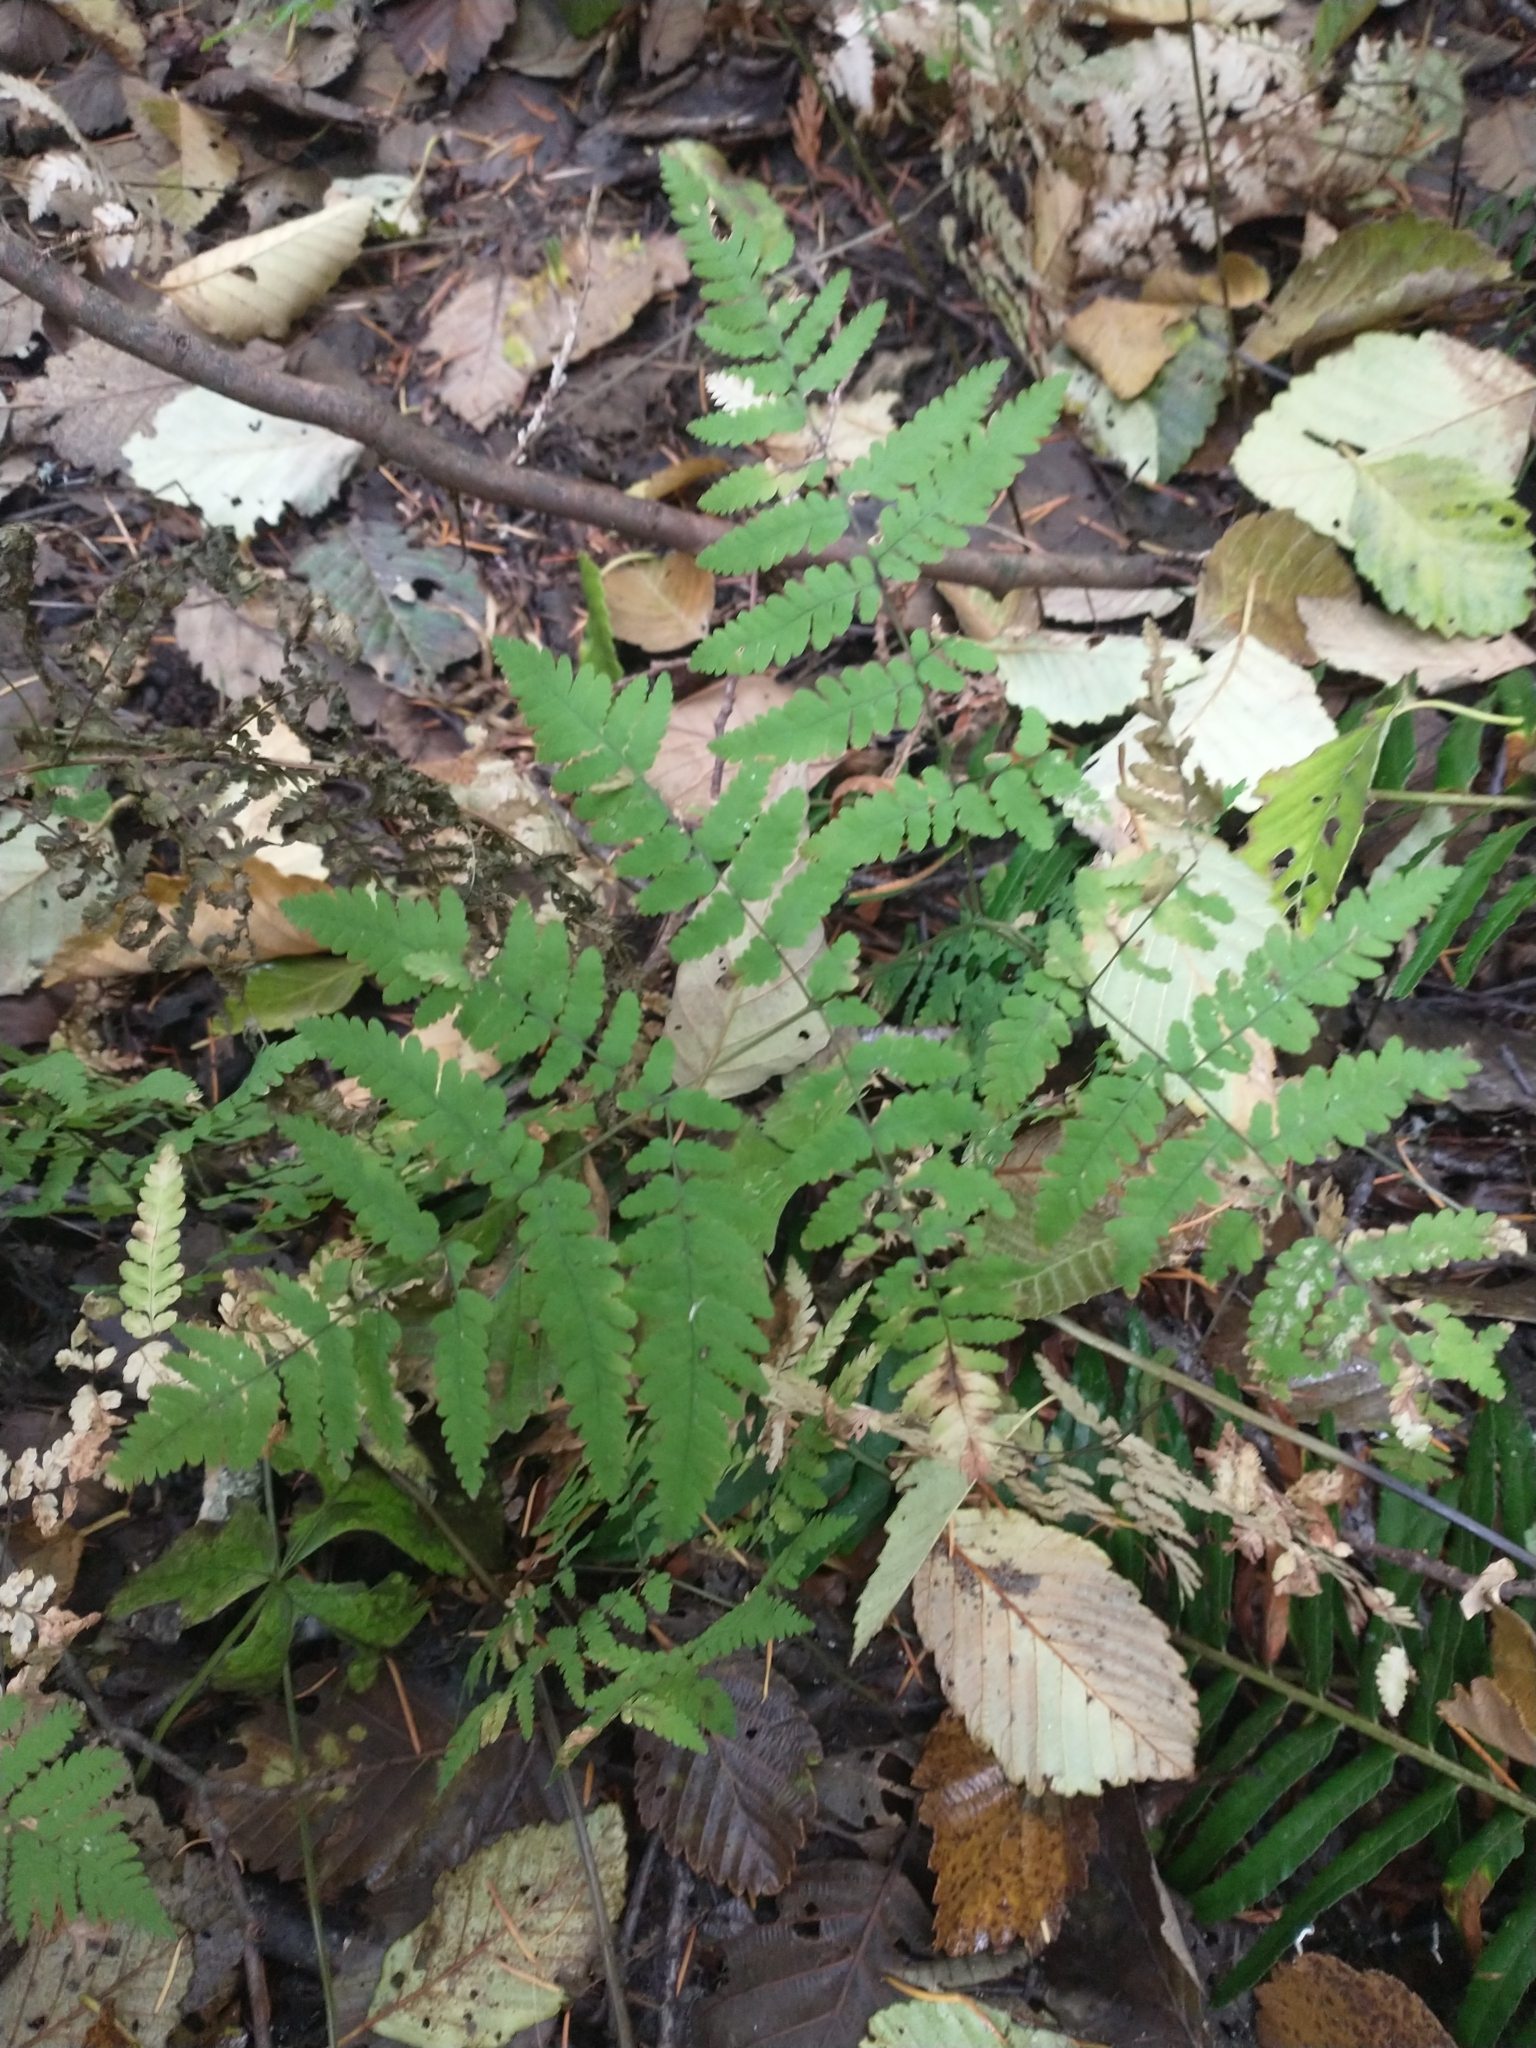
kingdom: Plantae
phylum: Tracheophyta
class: Polypodiopsida
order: Polypodiales
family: Cystopteridaceae
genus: Gymnocarpium
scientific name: Gymnocarpium disjunctum
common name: Western oak fern
